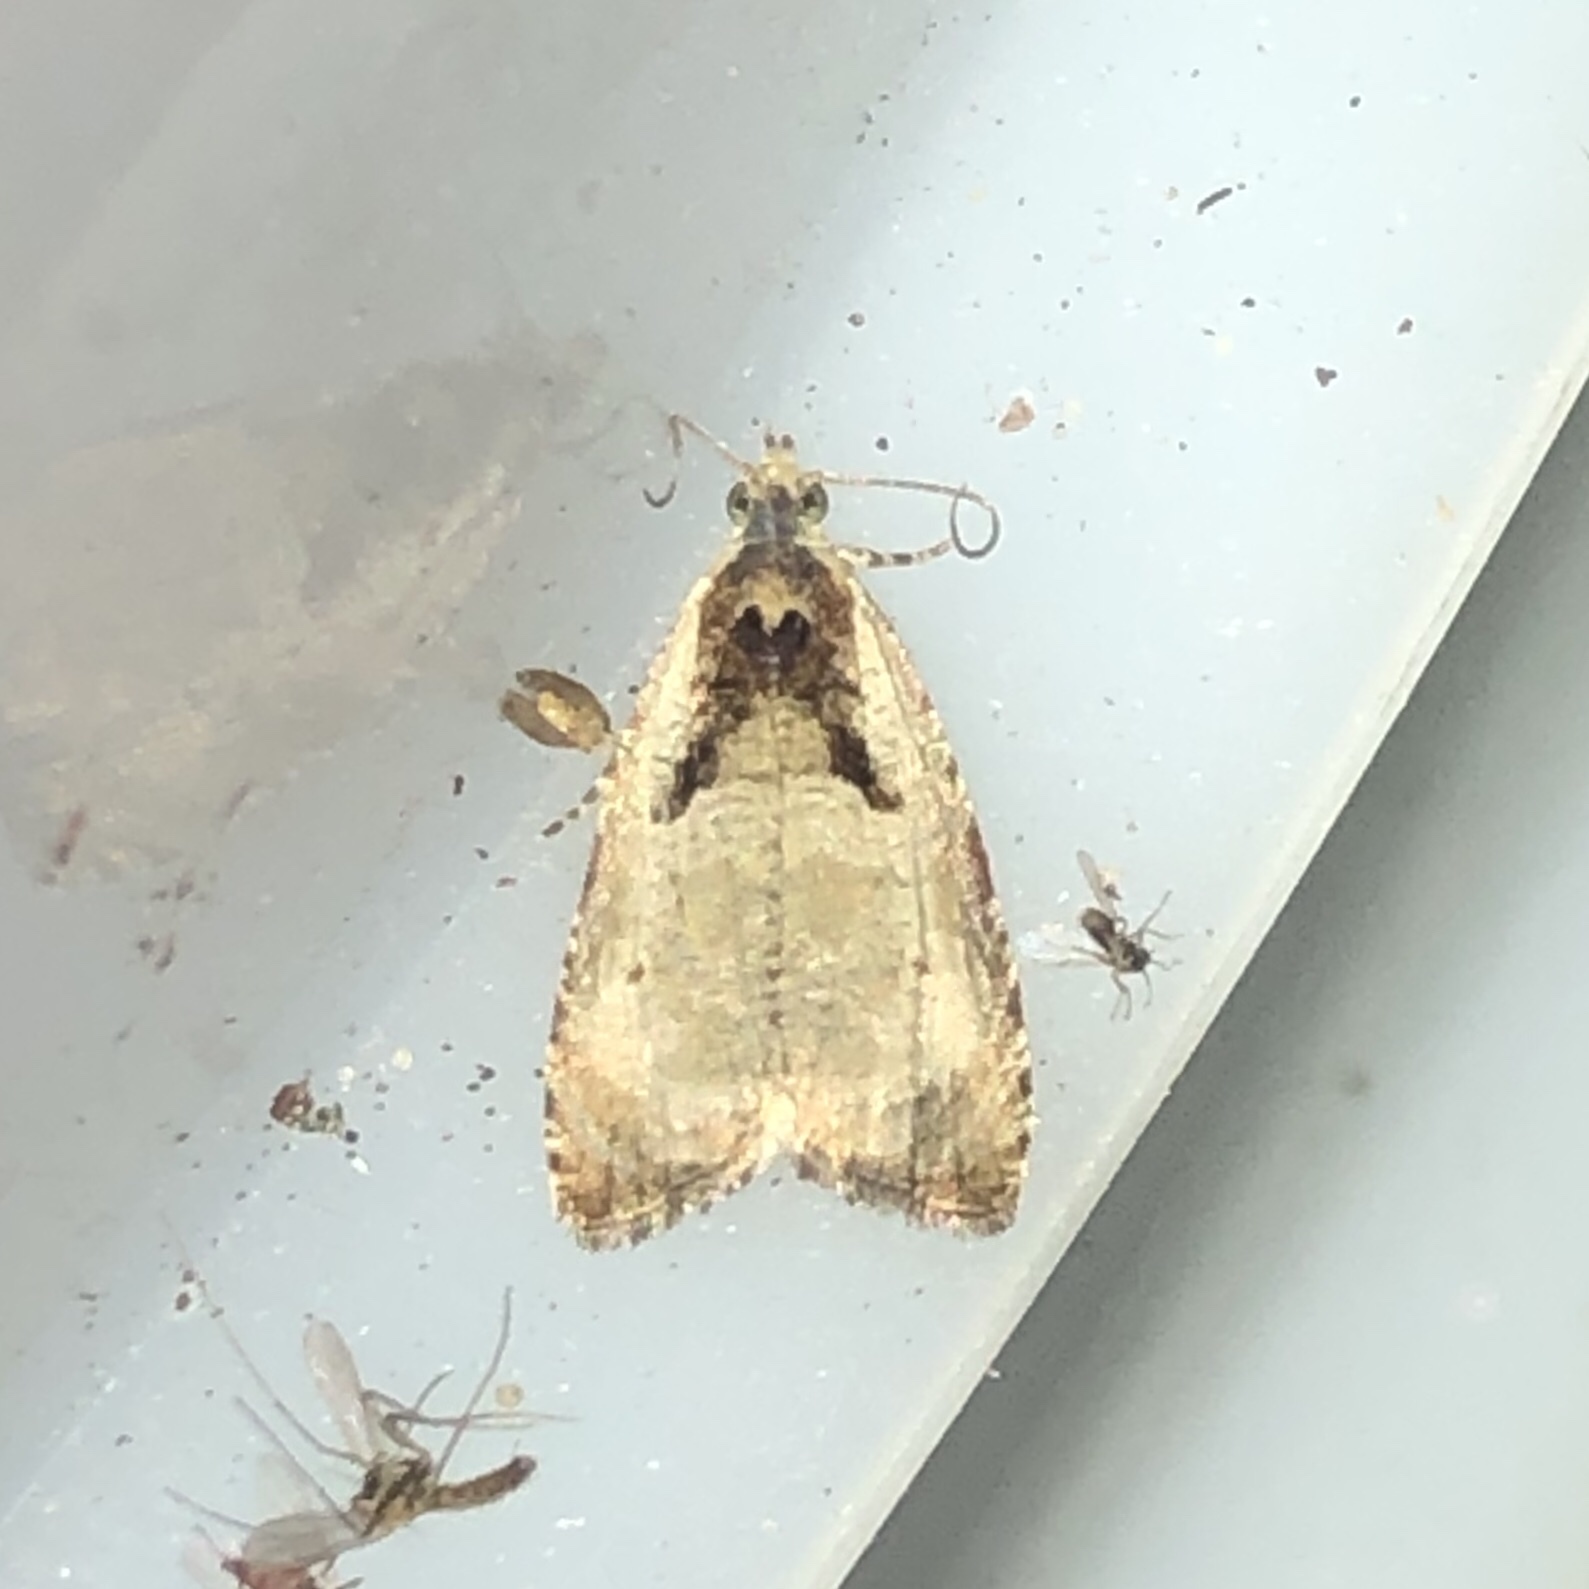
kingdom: Animalia
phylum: Arthropoda
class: Insecta
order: Lepidoptera
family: Tortricidae
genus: Olethreutes
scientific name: Olethreutes punctanum
